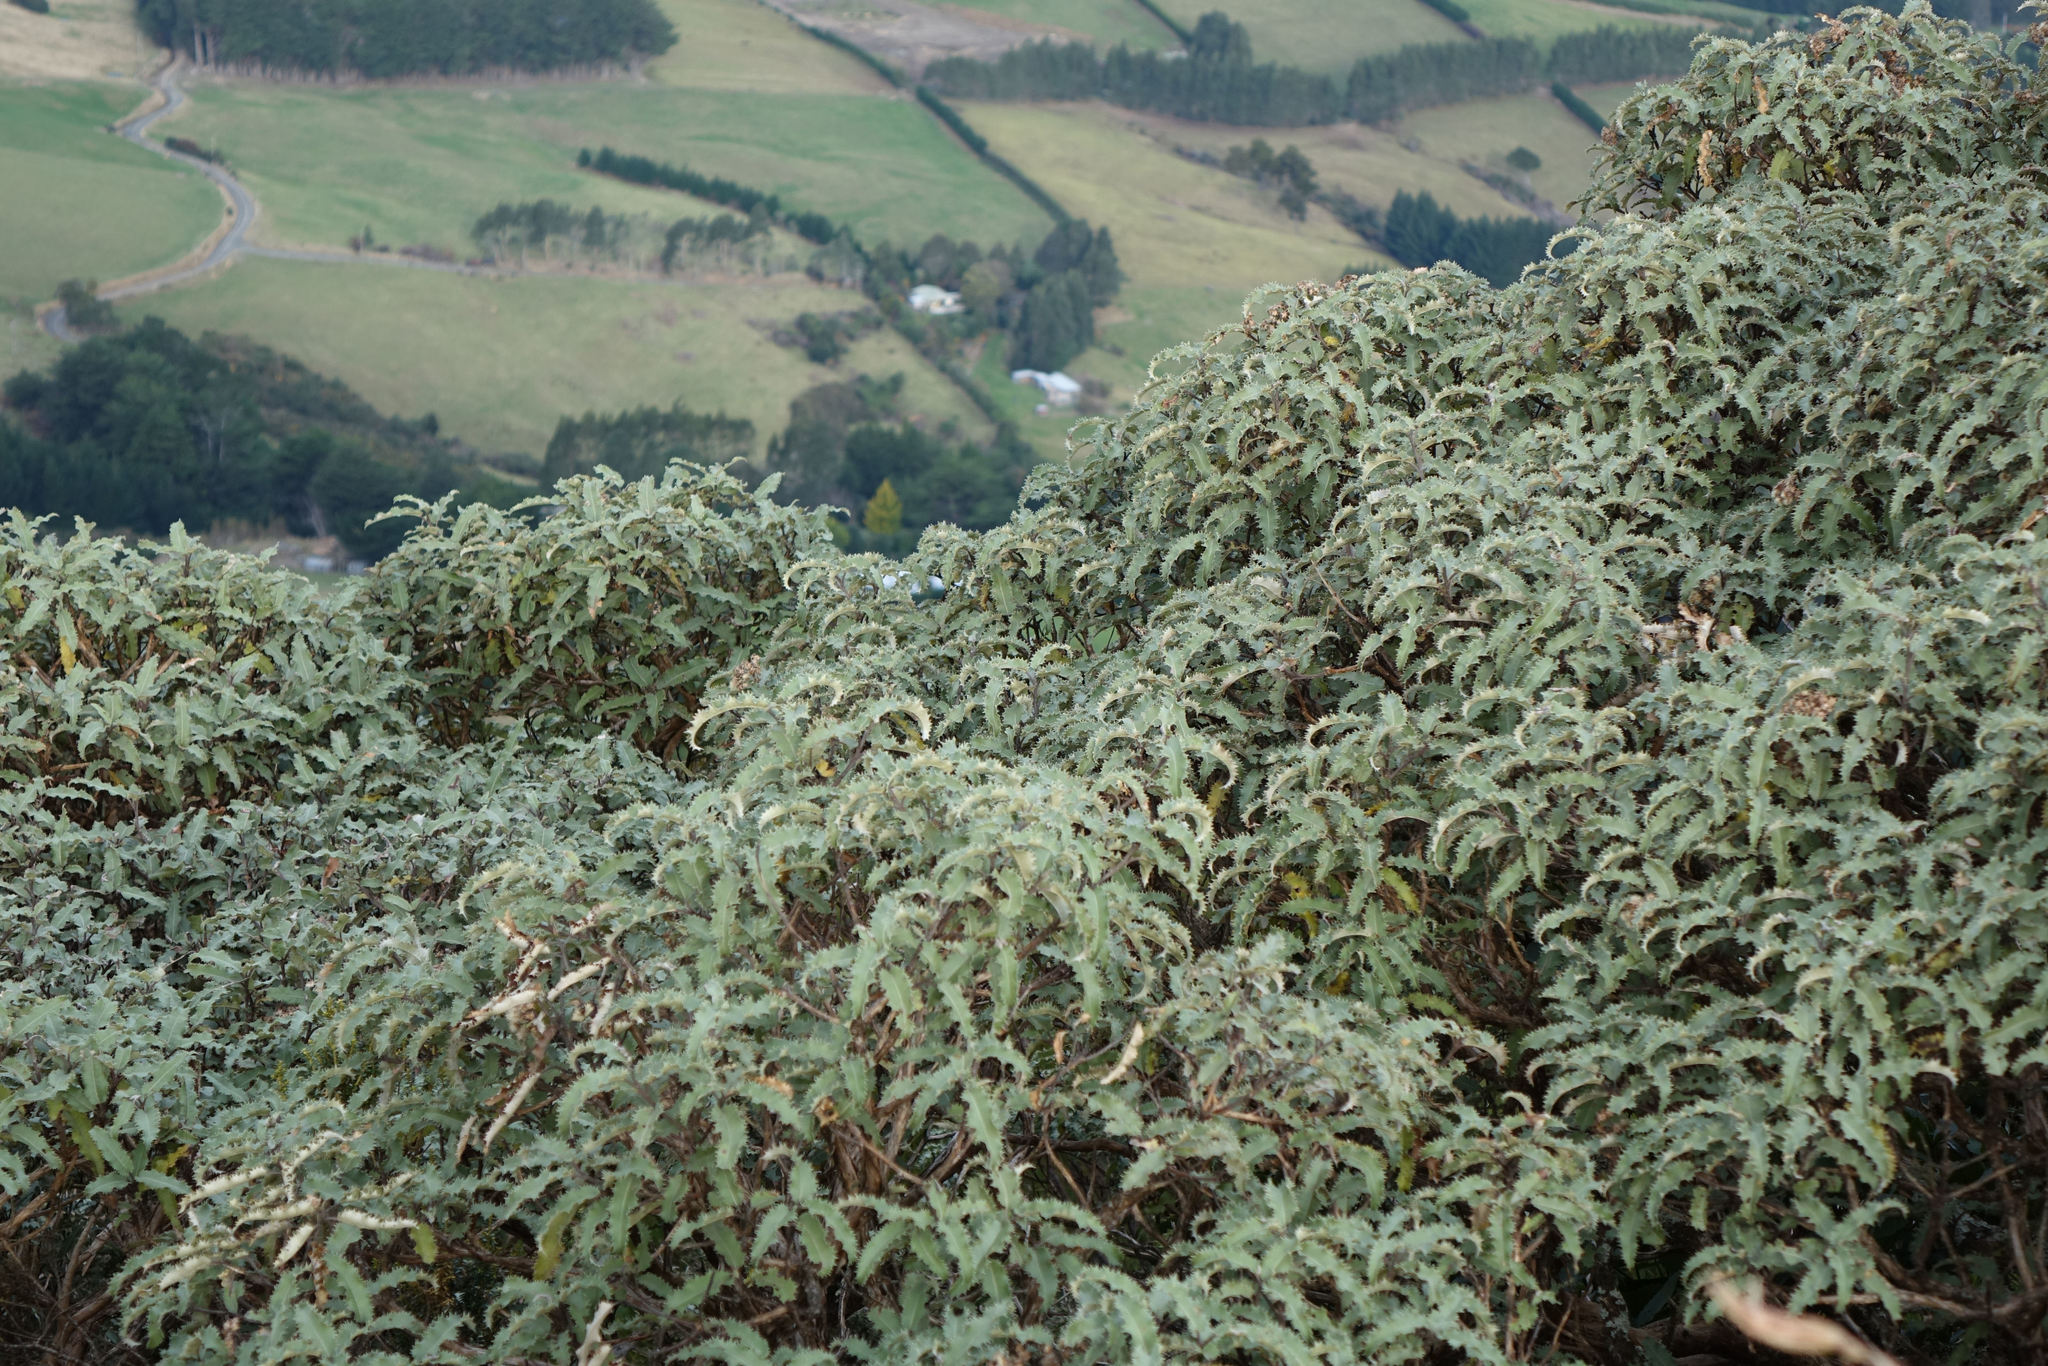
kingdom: Plantae
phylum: Tracheophyta
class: Magnoliopsida
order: Asterales
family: Asteraceae
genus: Olearia
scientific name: Olearia ilicifolia
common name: Maori-holly
